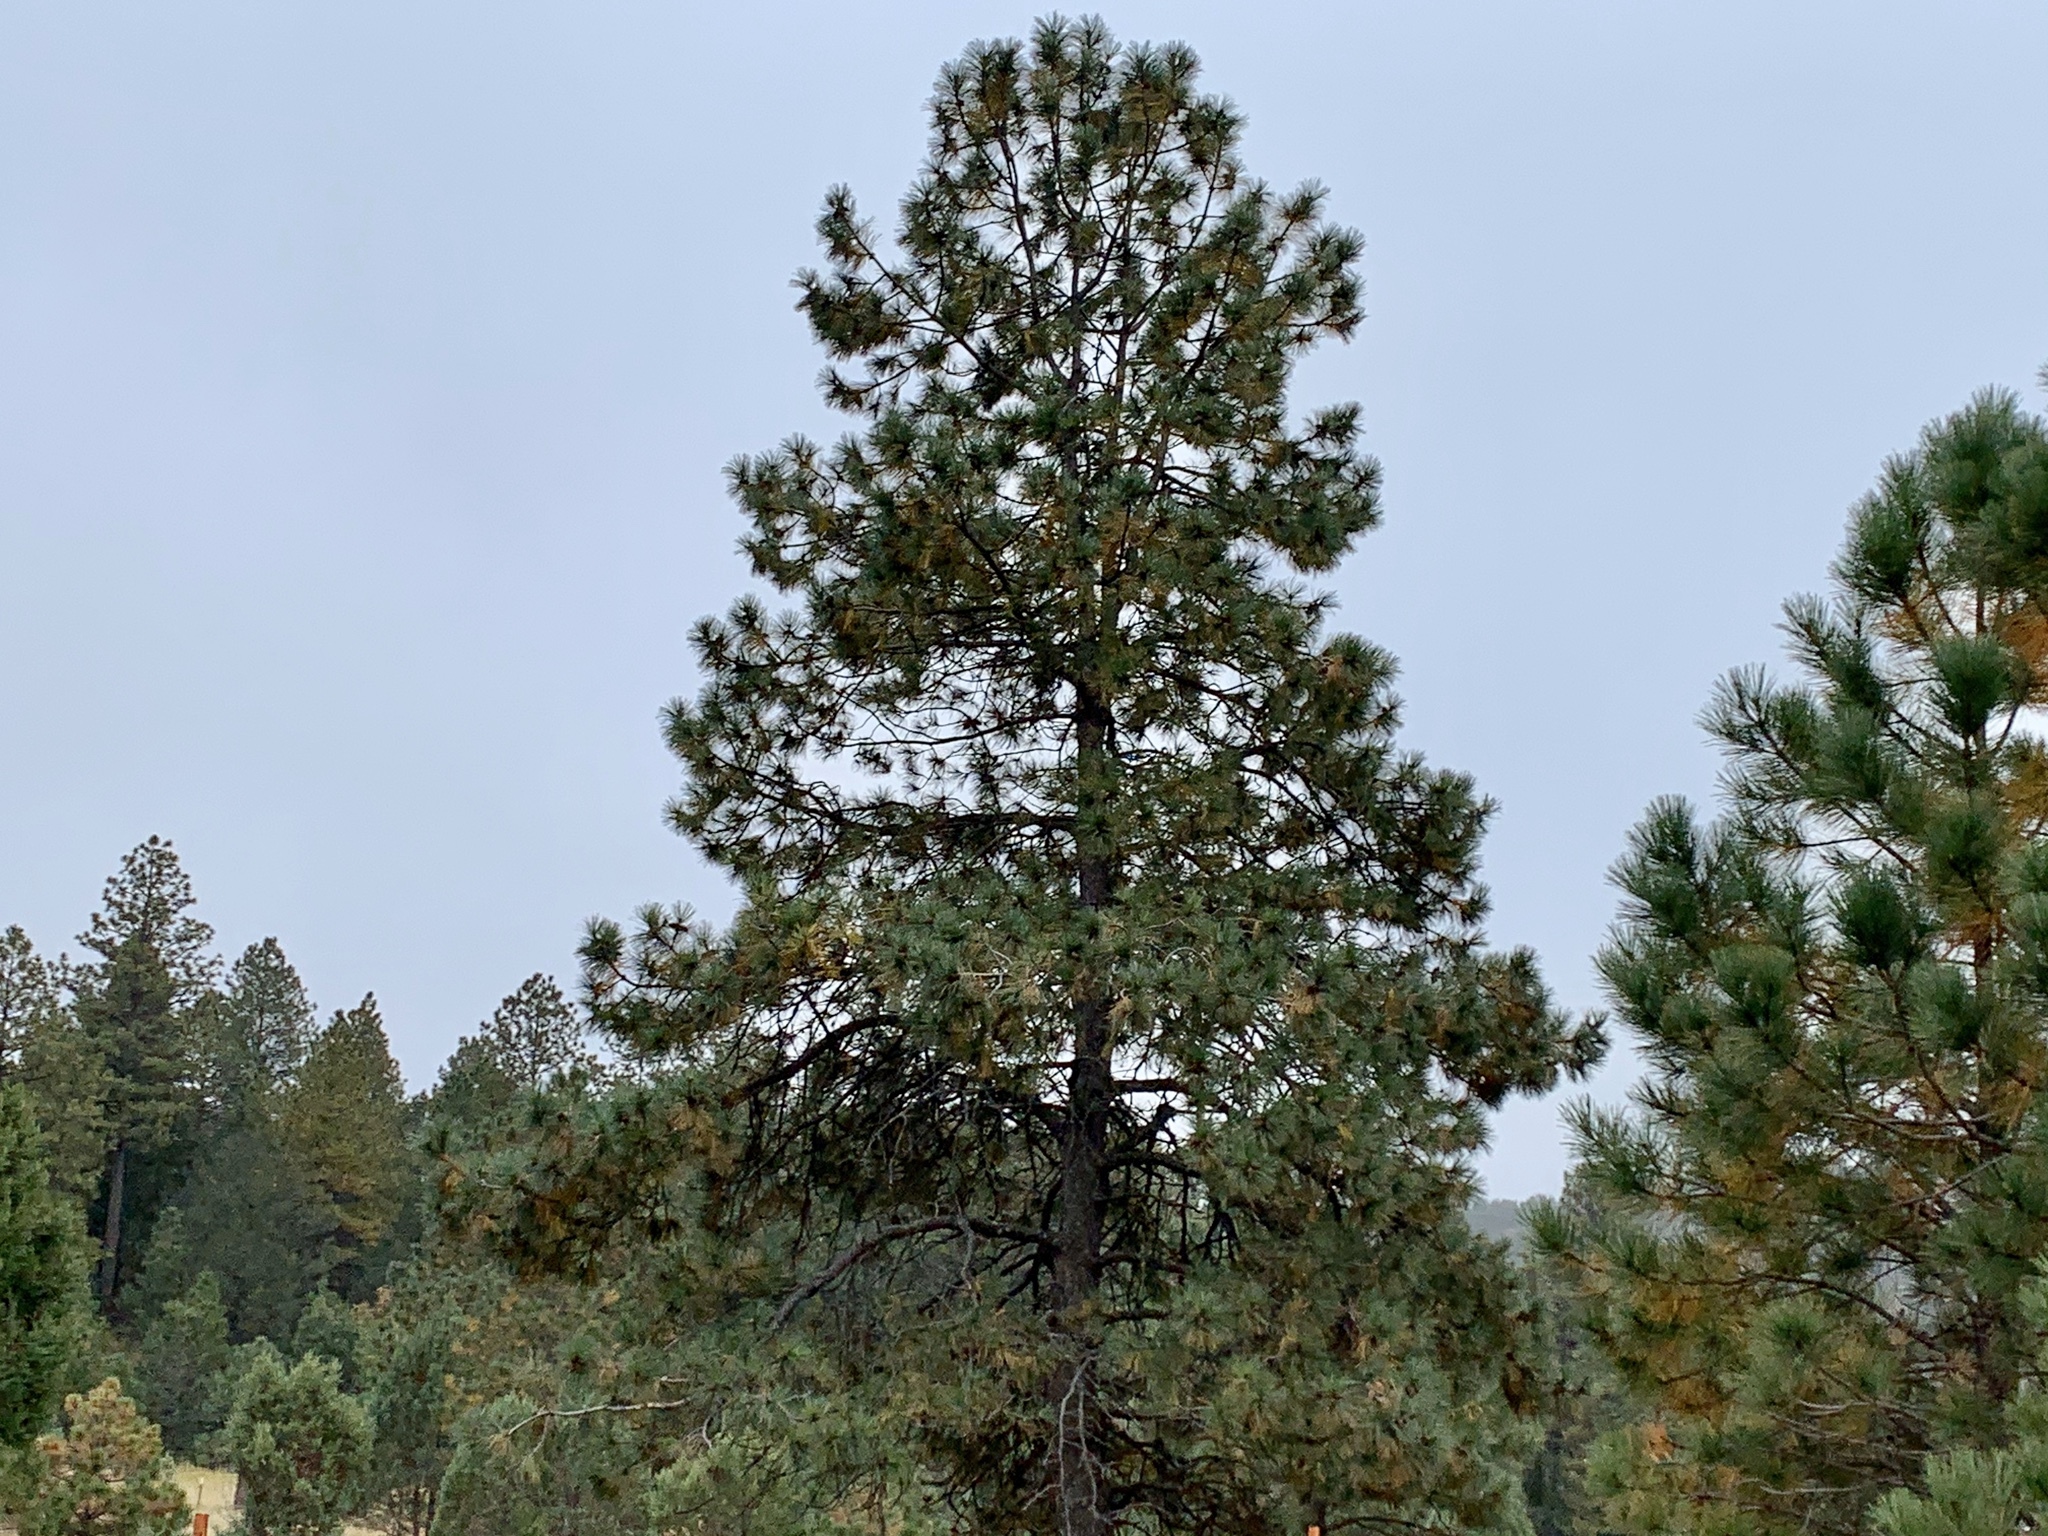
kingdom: Plantae
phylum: Tracheophyta
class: Pinopsida
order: Pinales
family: Pinaceae
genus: Pinus
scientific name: Pinus ponderosa
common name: Western yellow-pine
